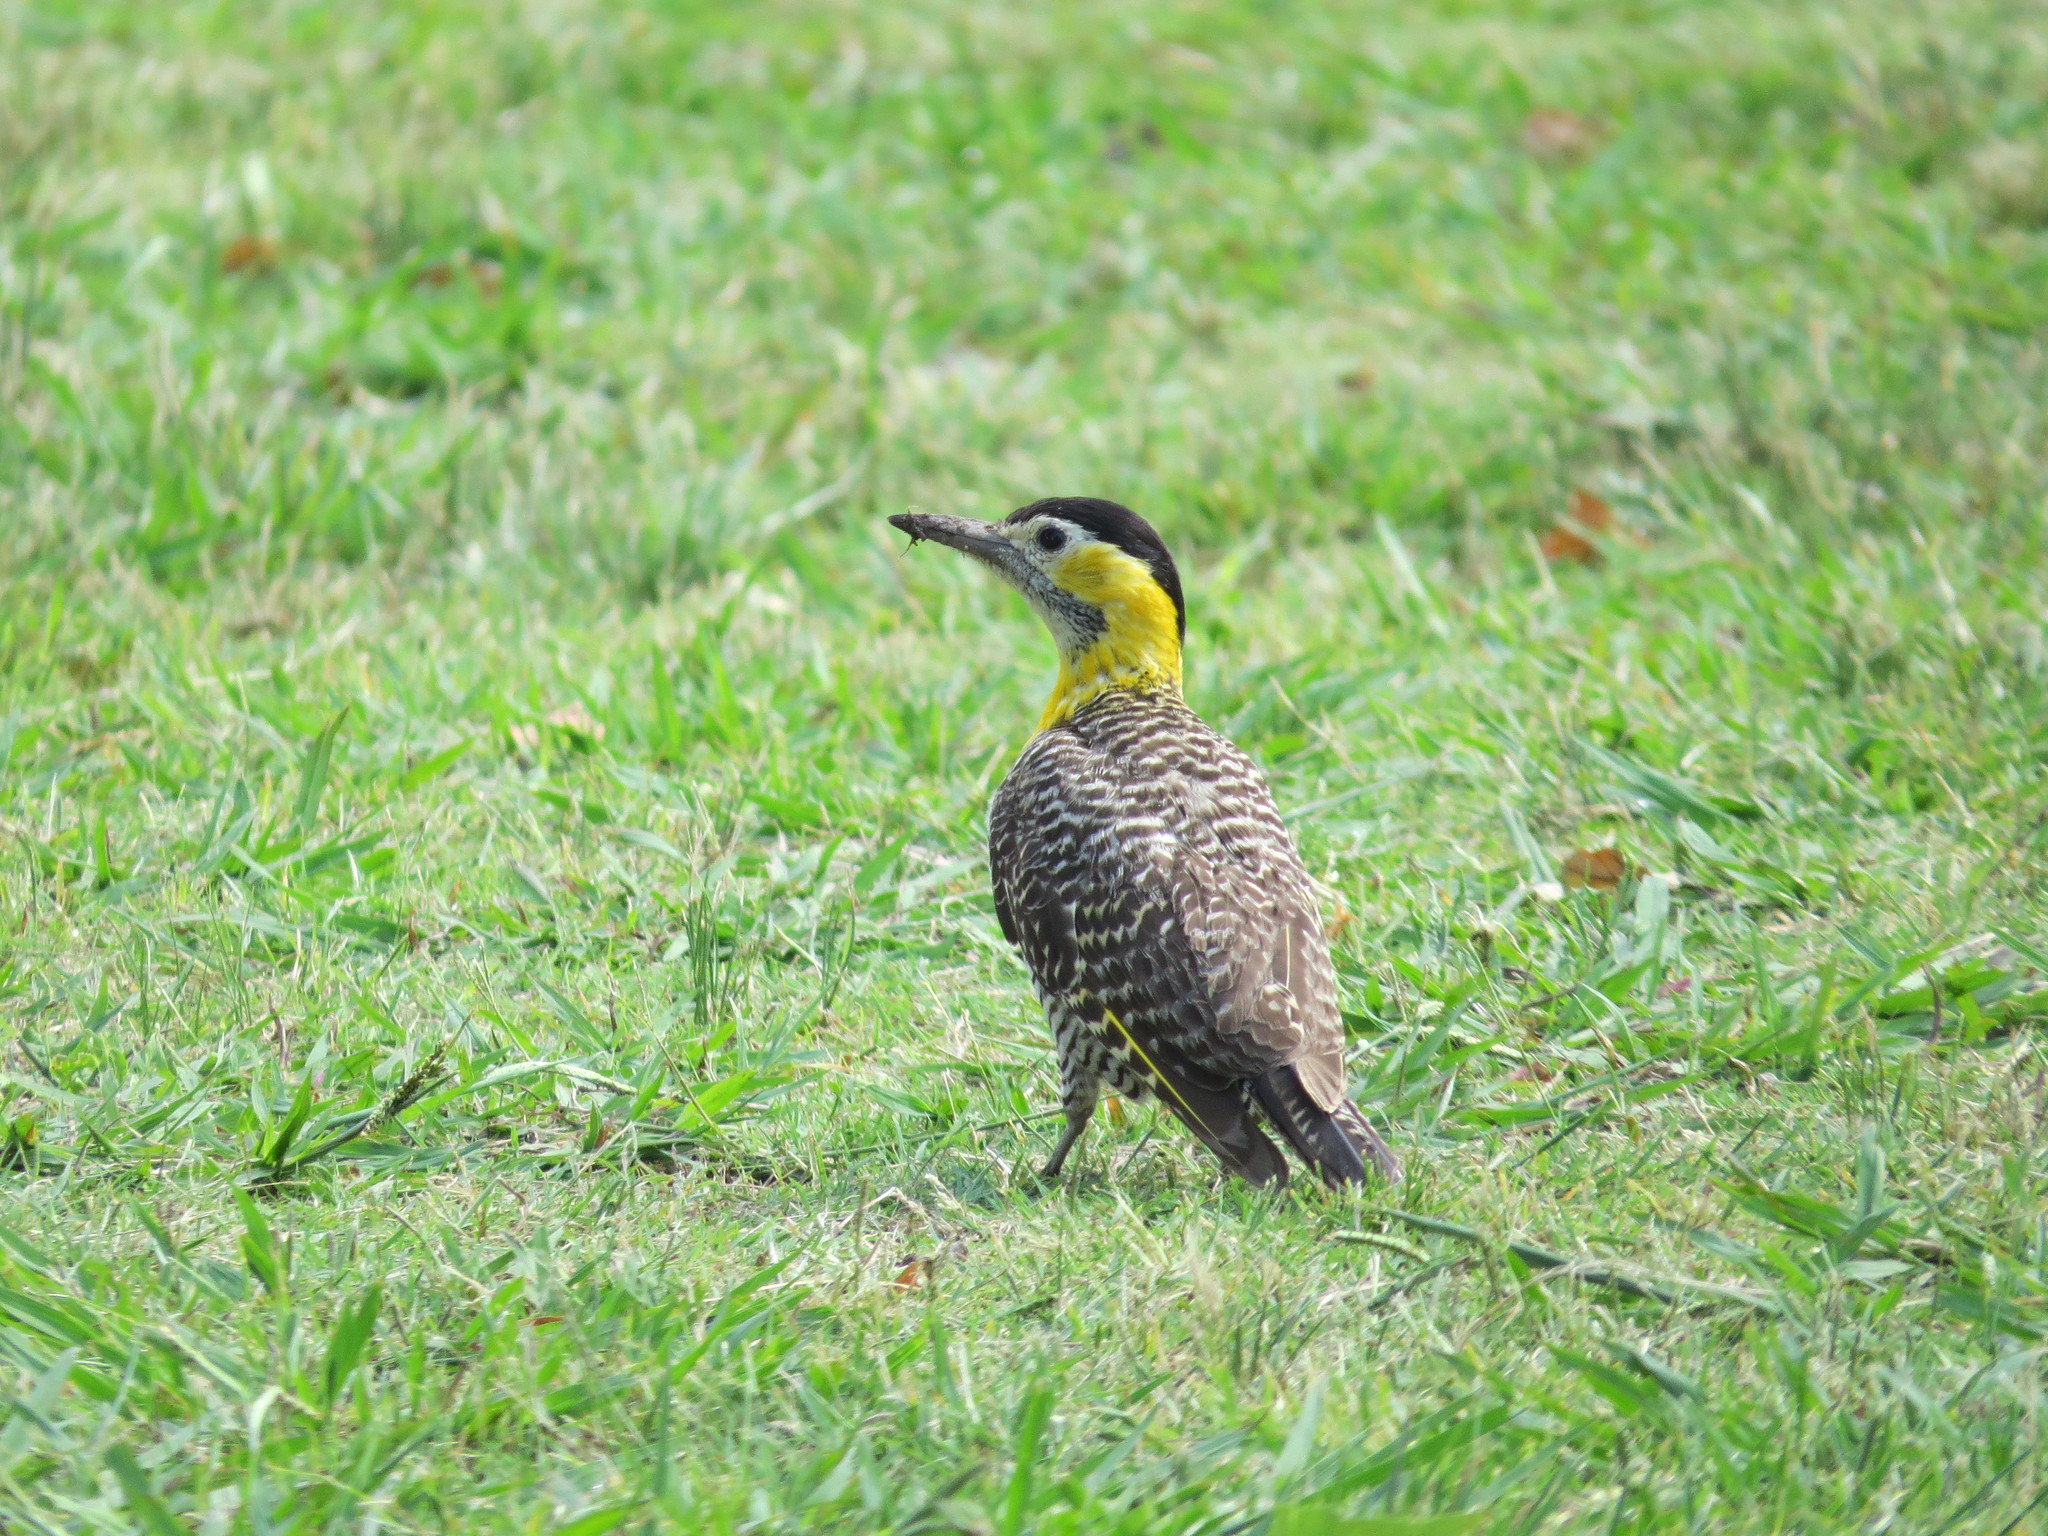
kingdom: Animalia
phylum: Chordata
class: Aves
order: Piciformes
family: Picidae
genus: Colaptes
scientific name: Colaptes campestris
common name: Campo flicker
